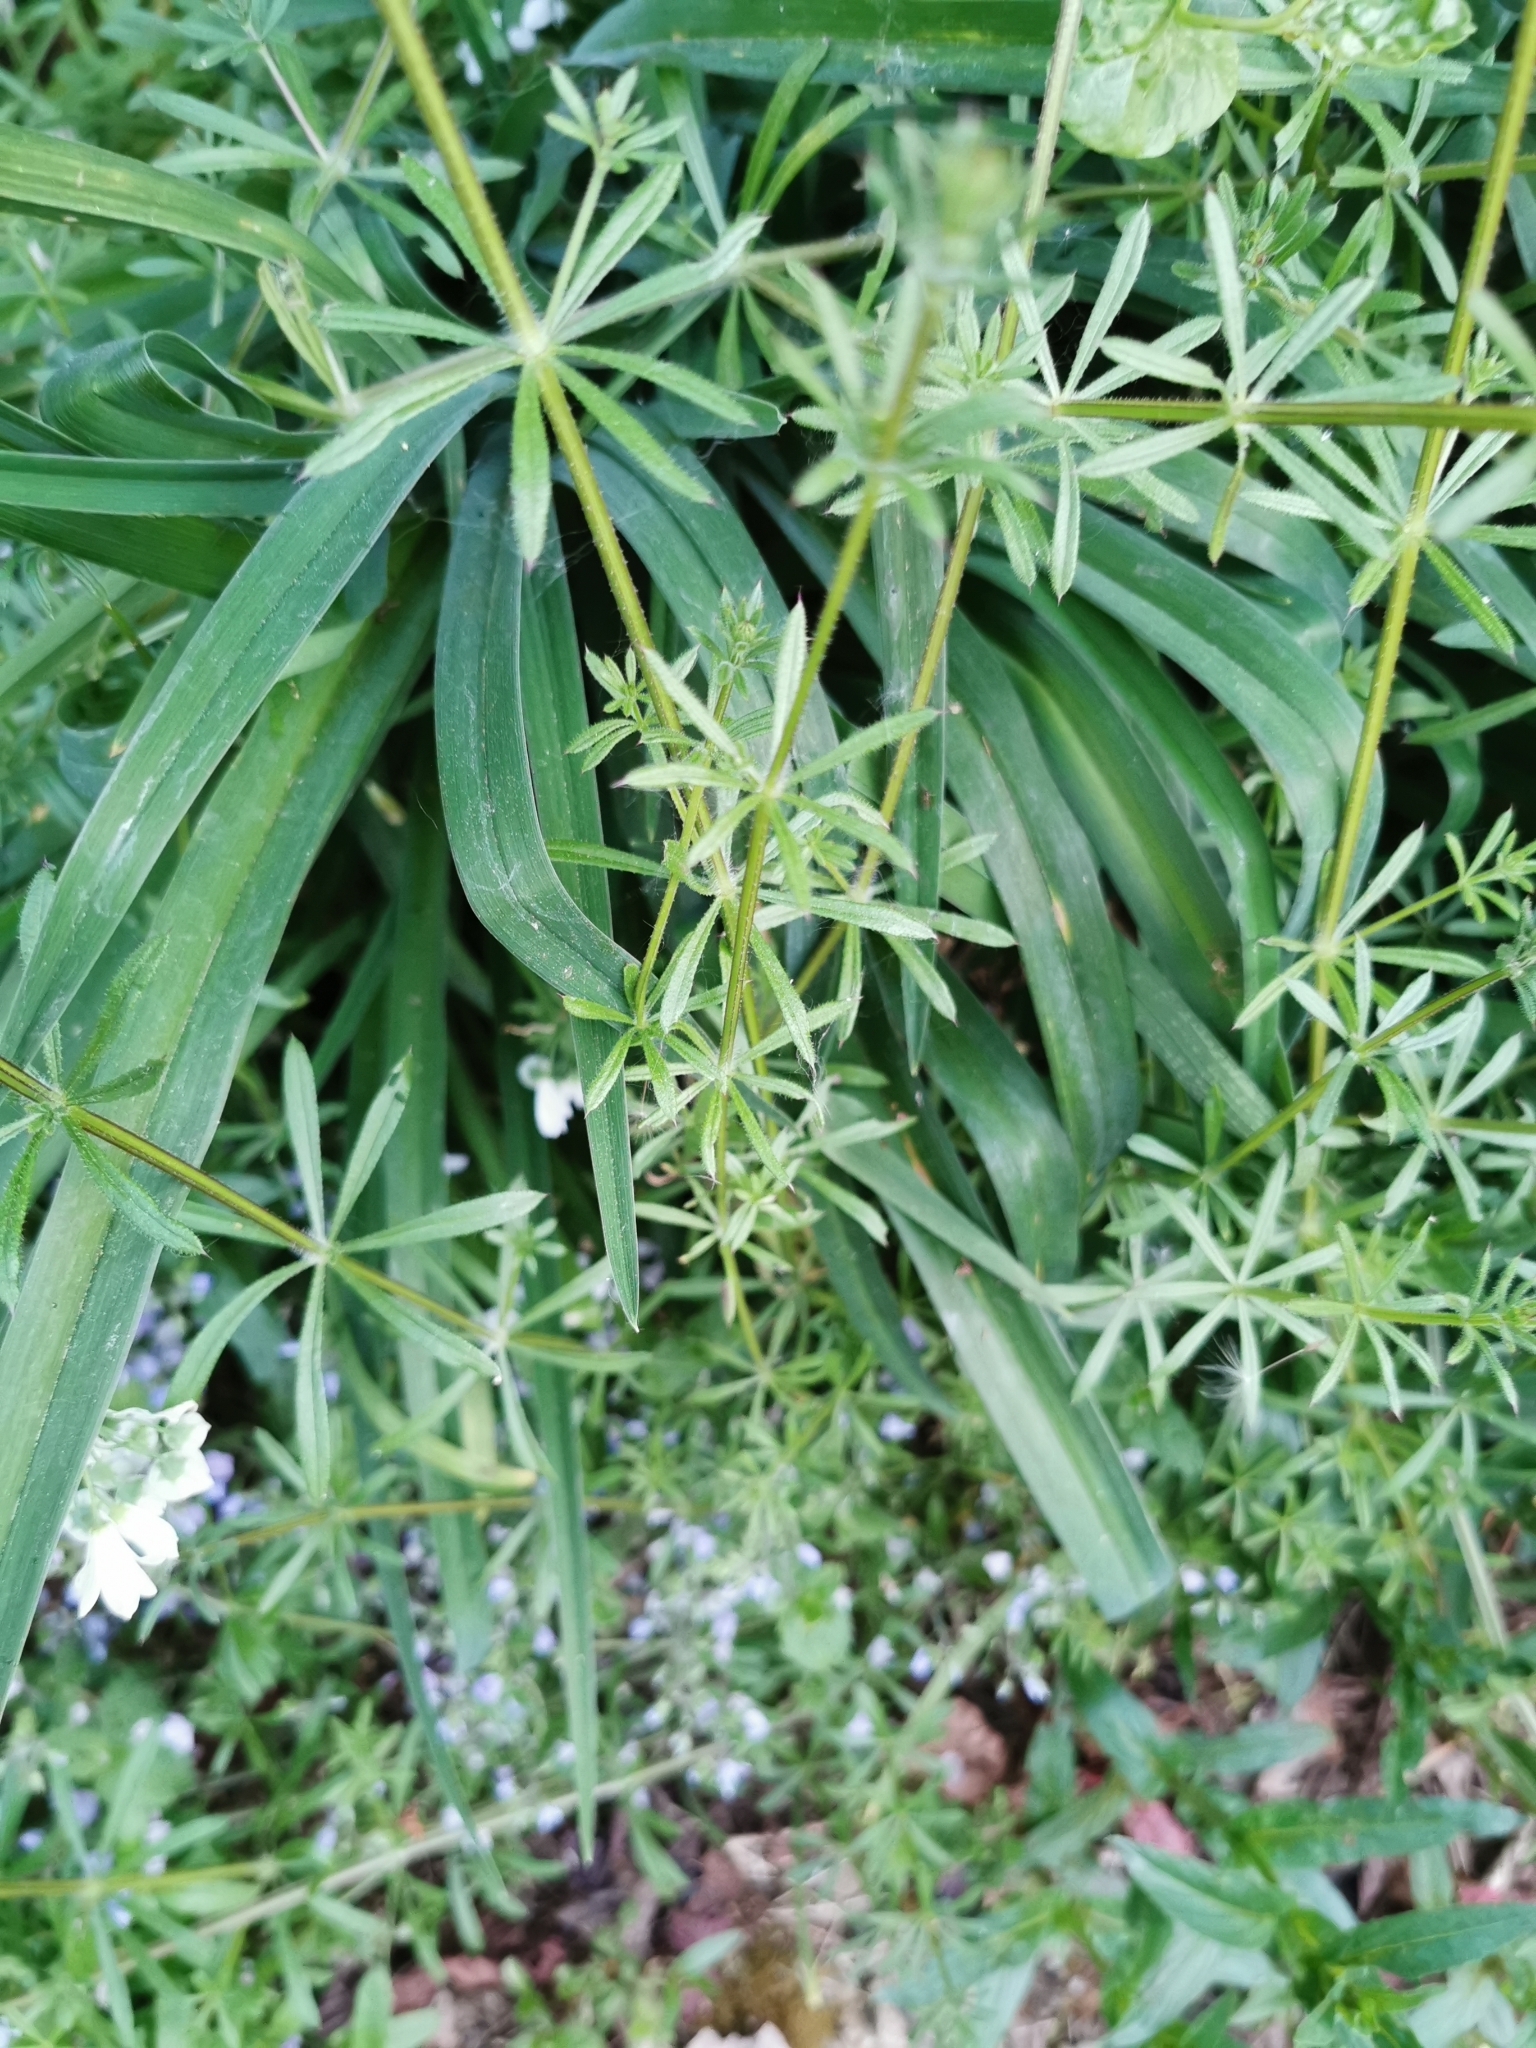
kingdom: Plantae
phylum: Tracheophyta
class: Magnoliopsida
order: Gentianales
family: Rubiaceae
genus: Galium
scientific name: Galium aparine
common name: Cleavers
